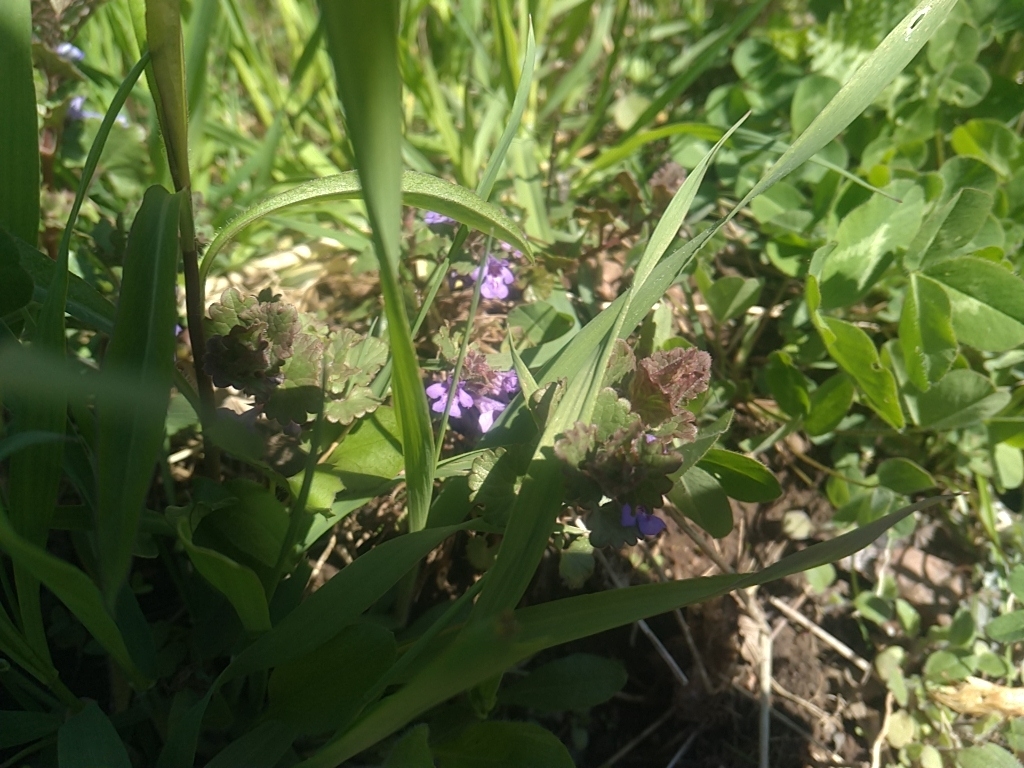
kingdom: Plantae
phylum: Tracheophyta
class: Magnoliopsida
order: Lamiales
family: Lamiaceae
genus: Glechoma
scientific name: Glechoma hederacea
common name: Ground ivy
